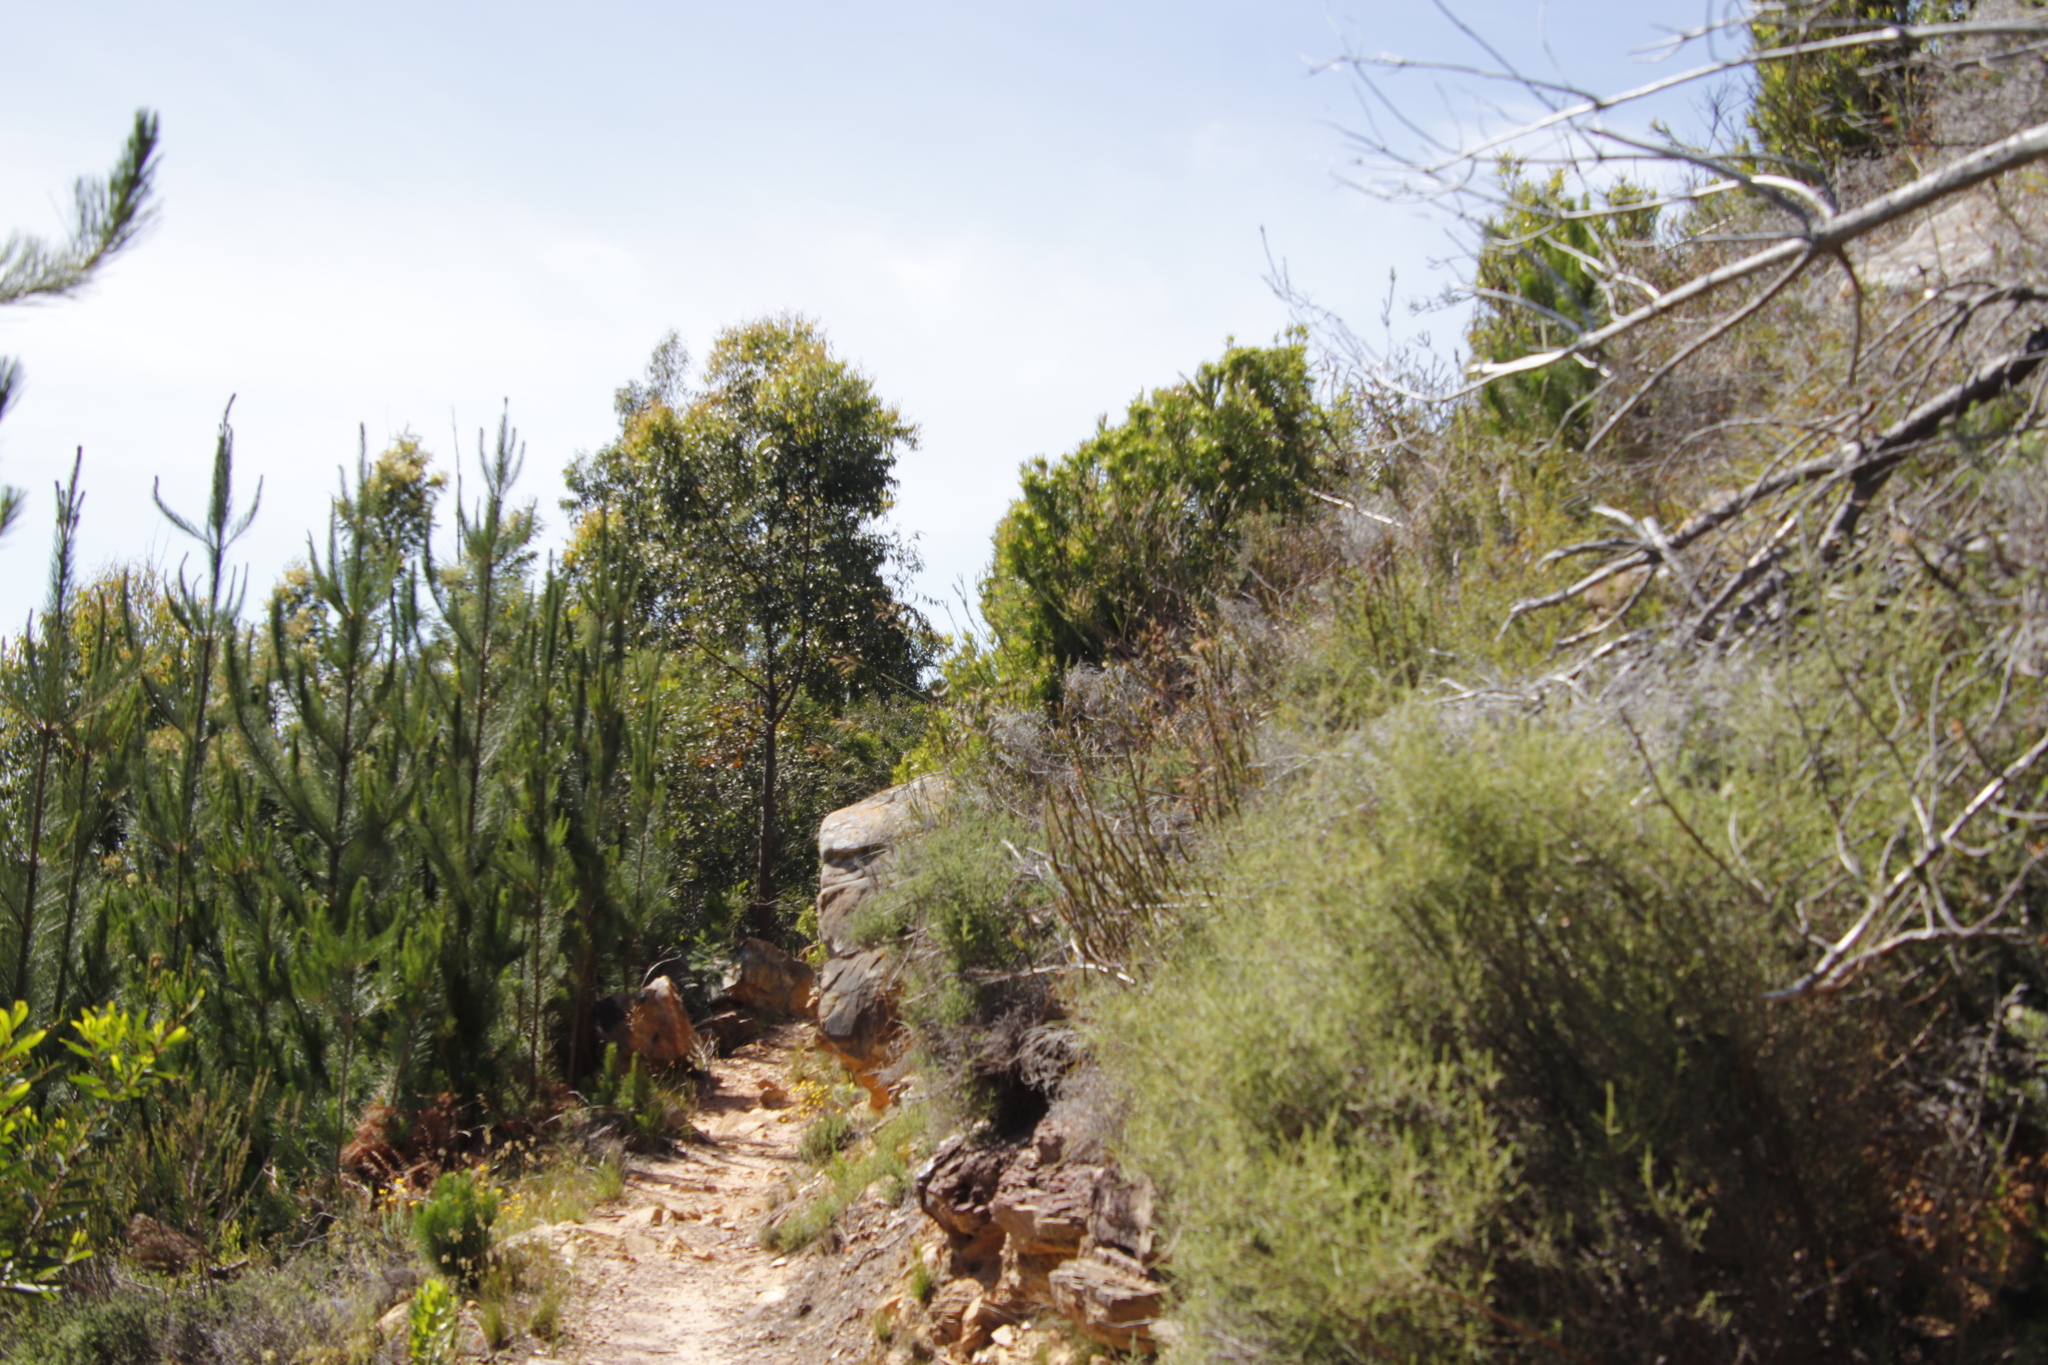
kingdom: Plantae
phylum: Tracheophyta
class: Pinopsida
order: Pinales
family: Pinaceae
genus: Pinus
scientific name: Pinus radiata
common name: Monterey pine
